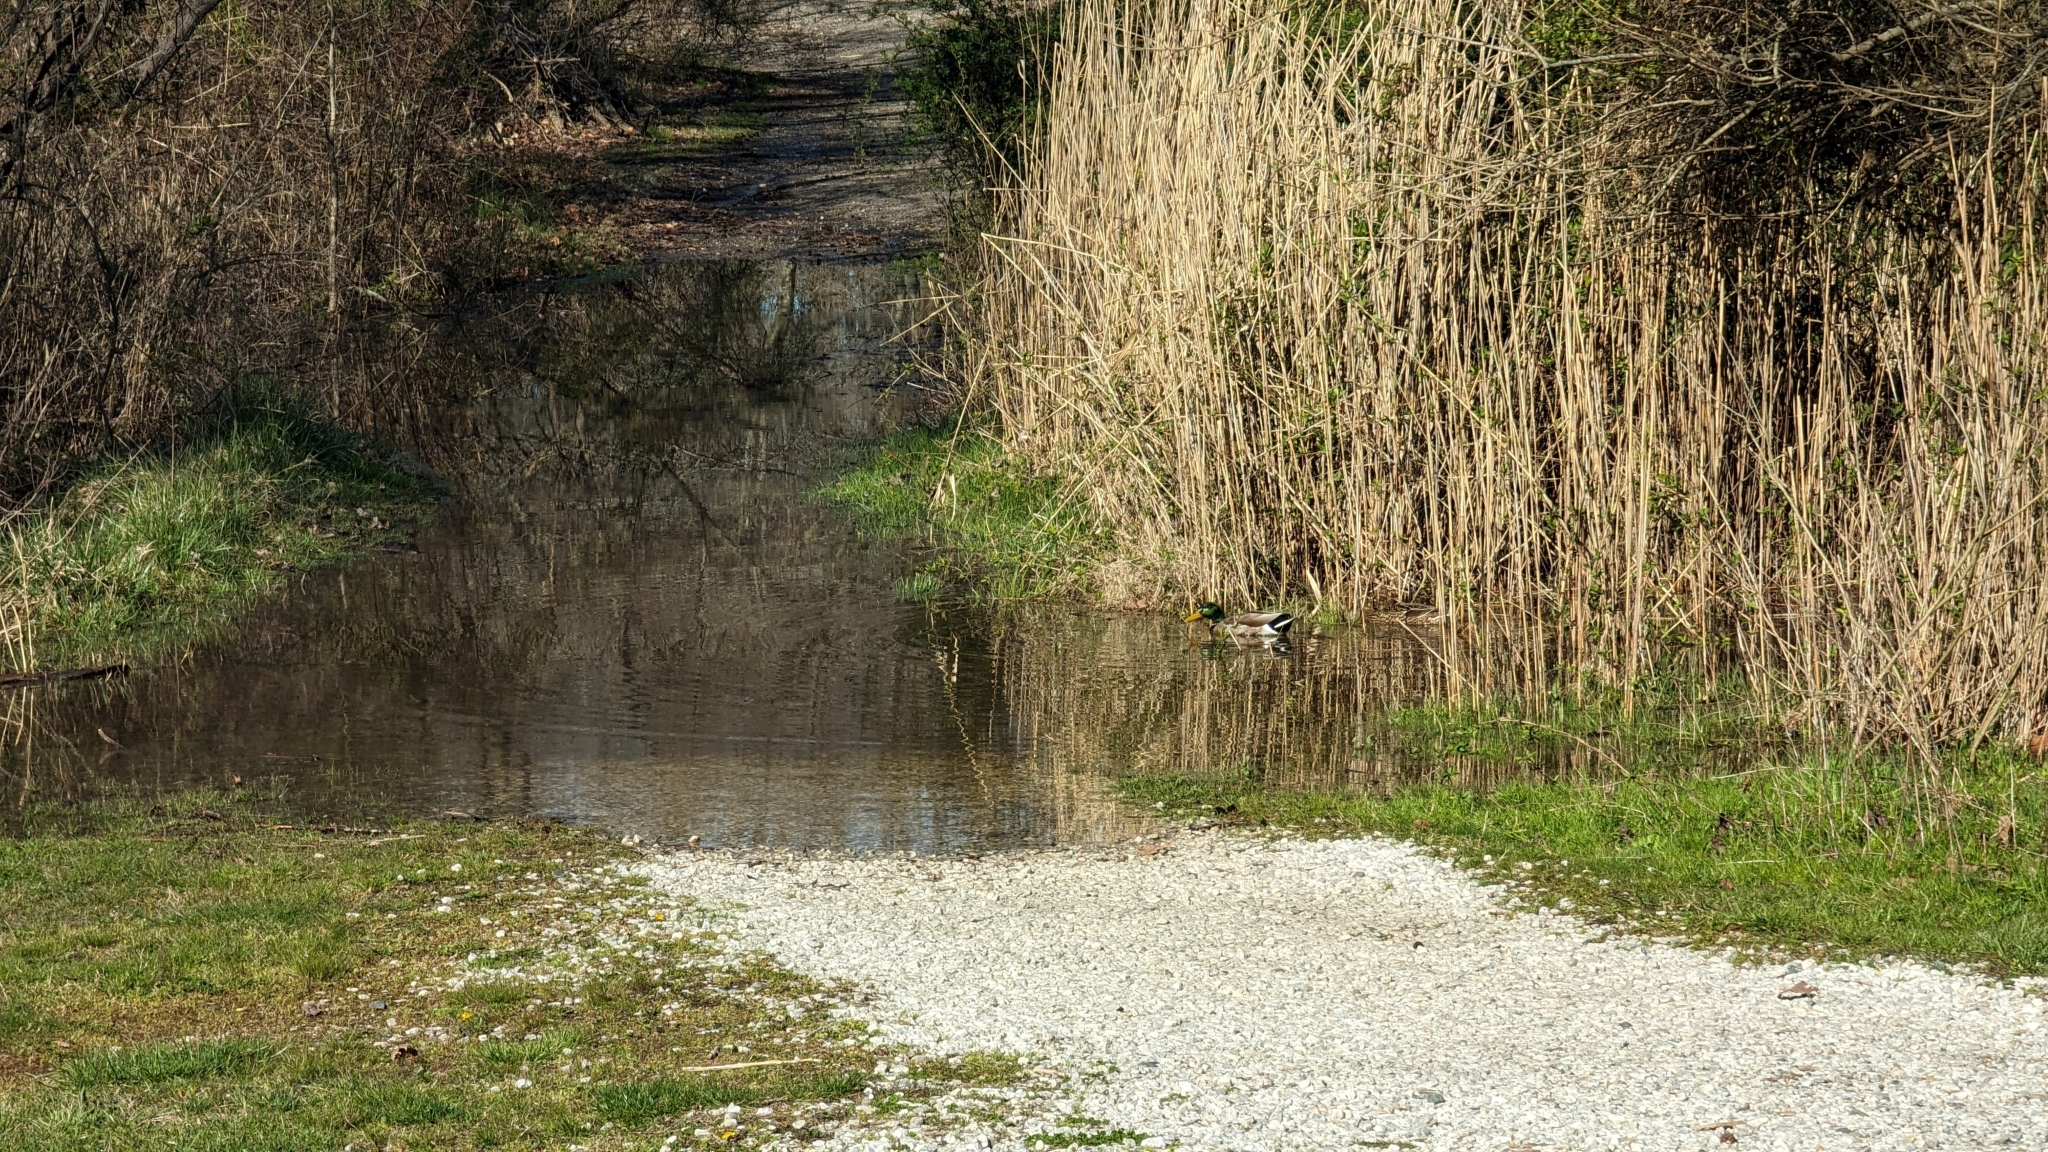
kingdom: Animalia
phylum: Chordata
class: Aves
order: Anseriformes
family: Anatidae
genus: Anas
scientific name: Anas platyrhynchos
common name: Mallard
